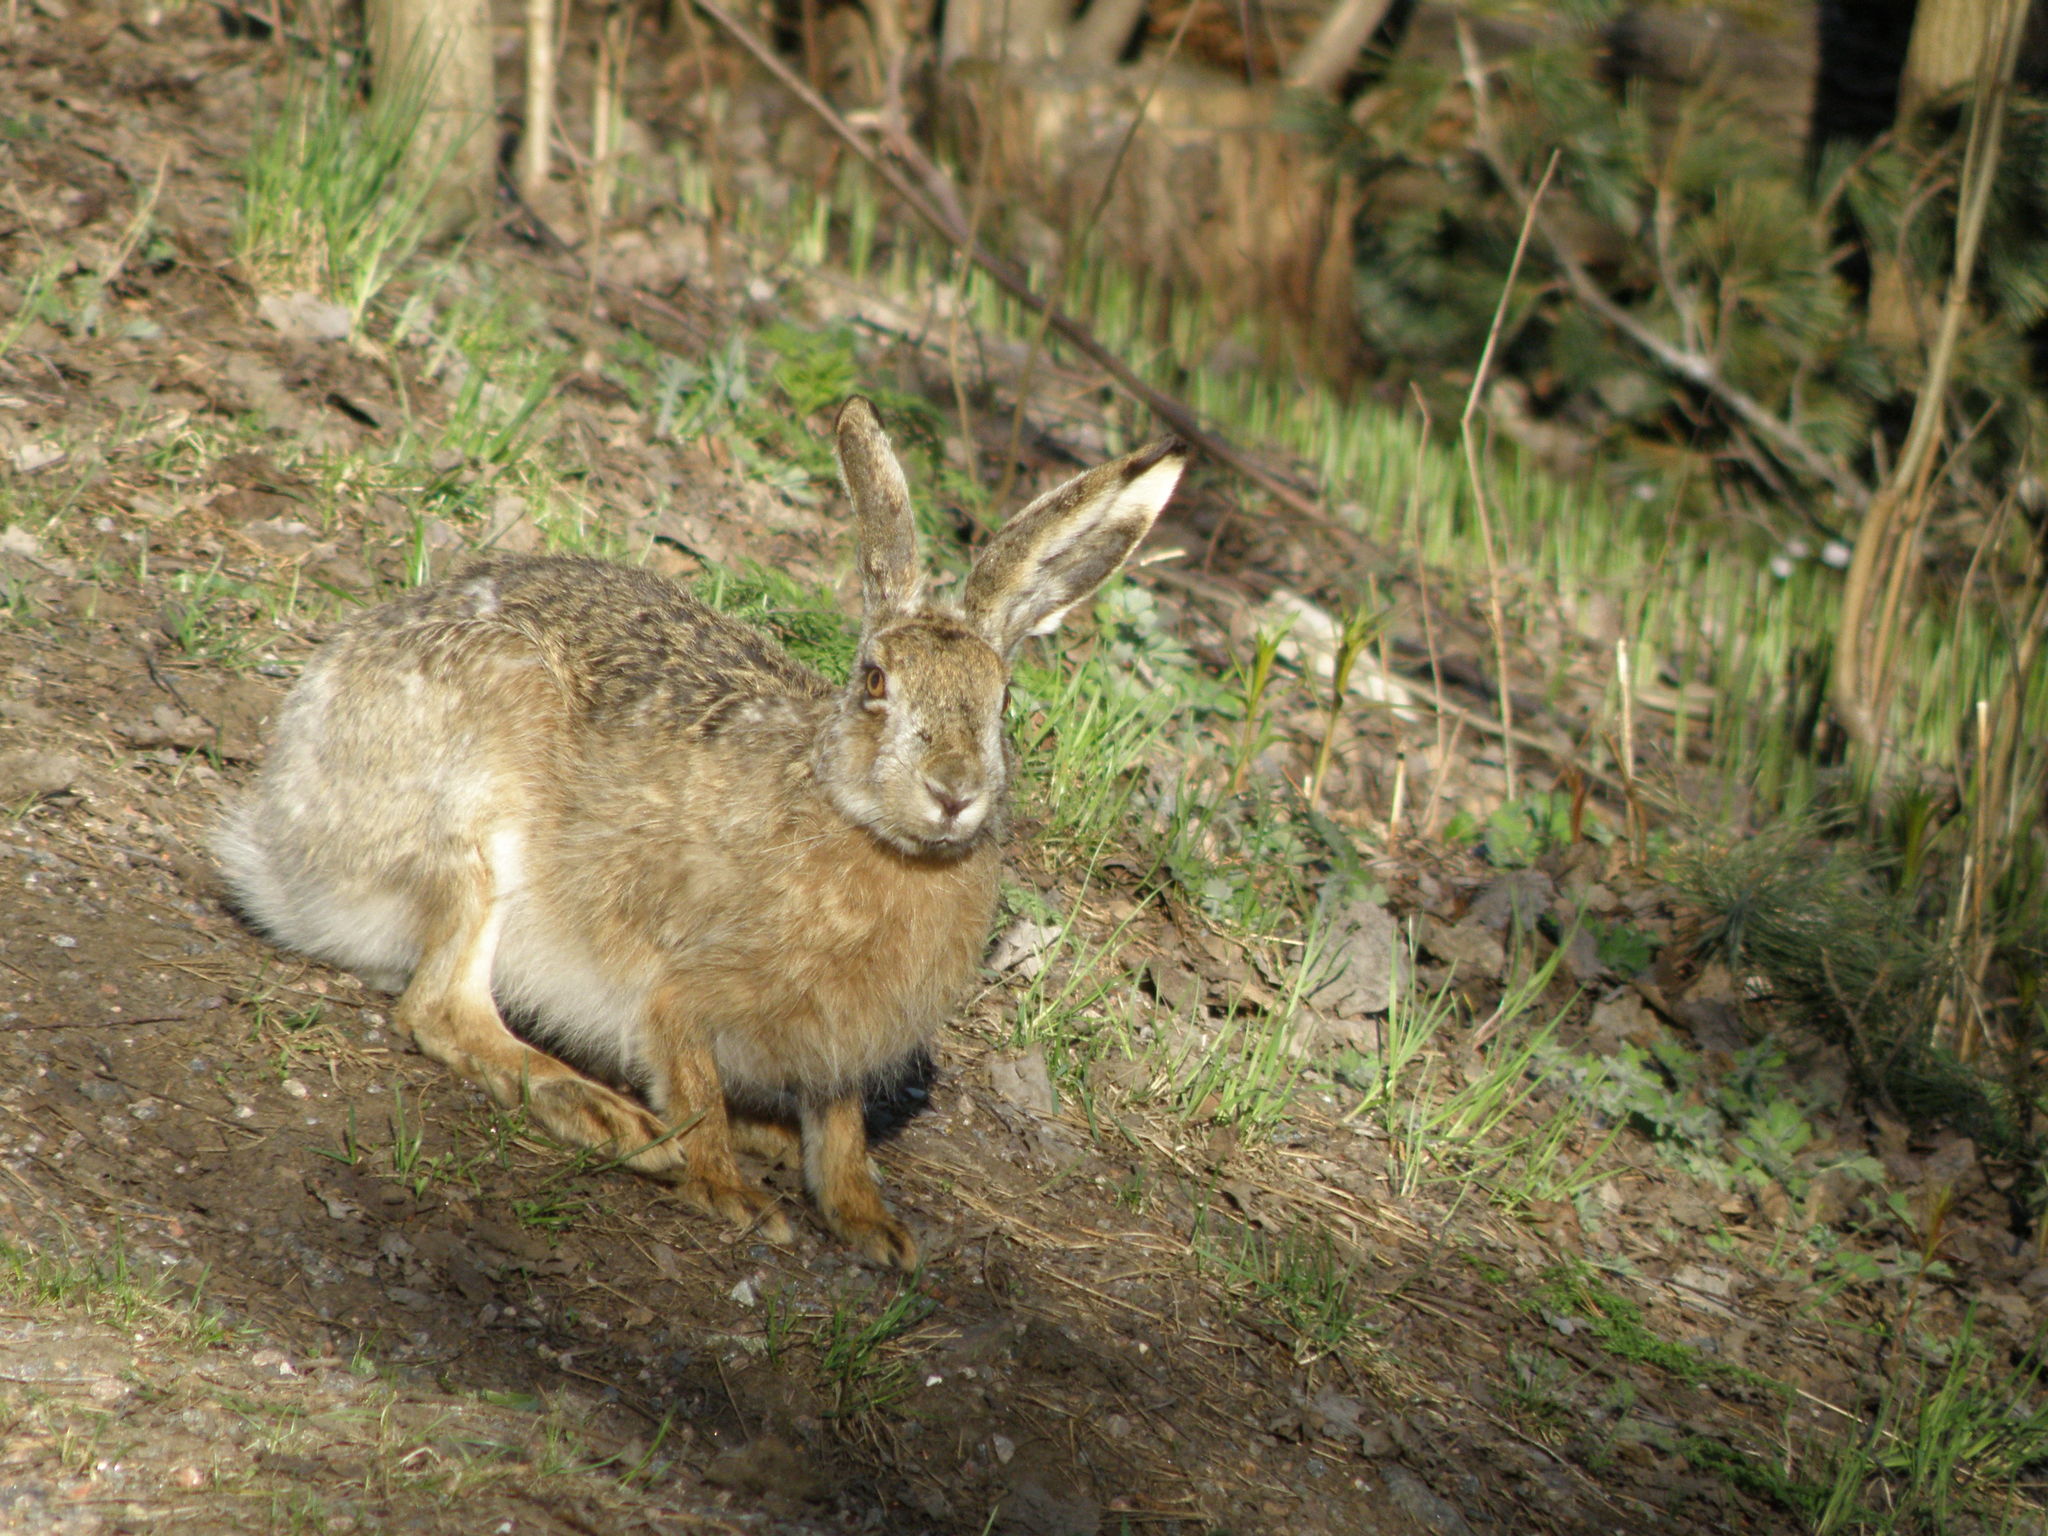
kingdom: Animalia
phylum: Chordata
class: Mammalia
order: Lagomorpha
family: Leporidae
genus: Lepus
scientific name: Lepus europaeus
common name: European hare
